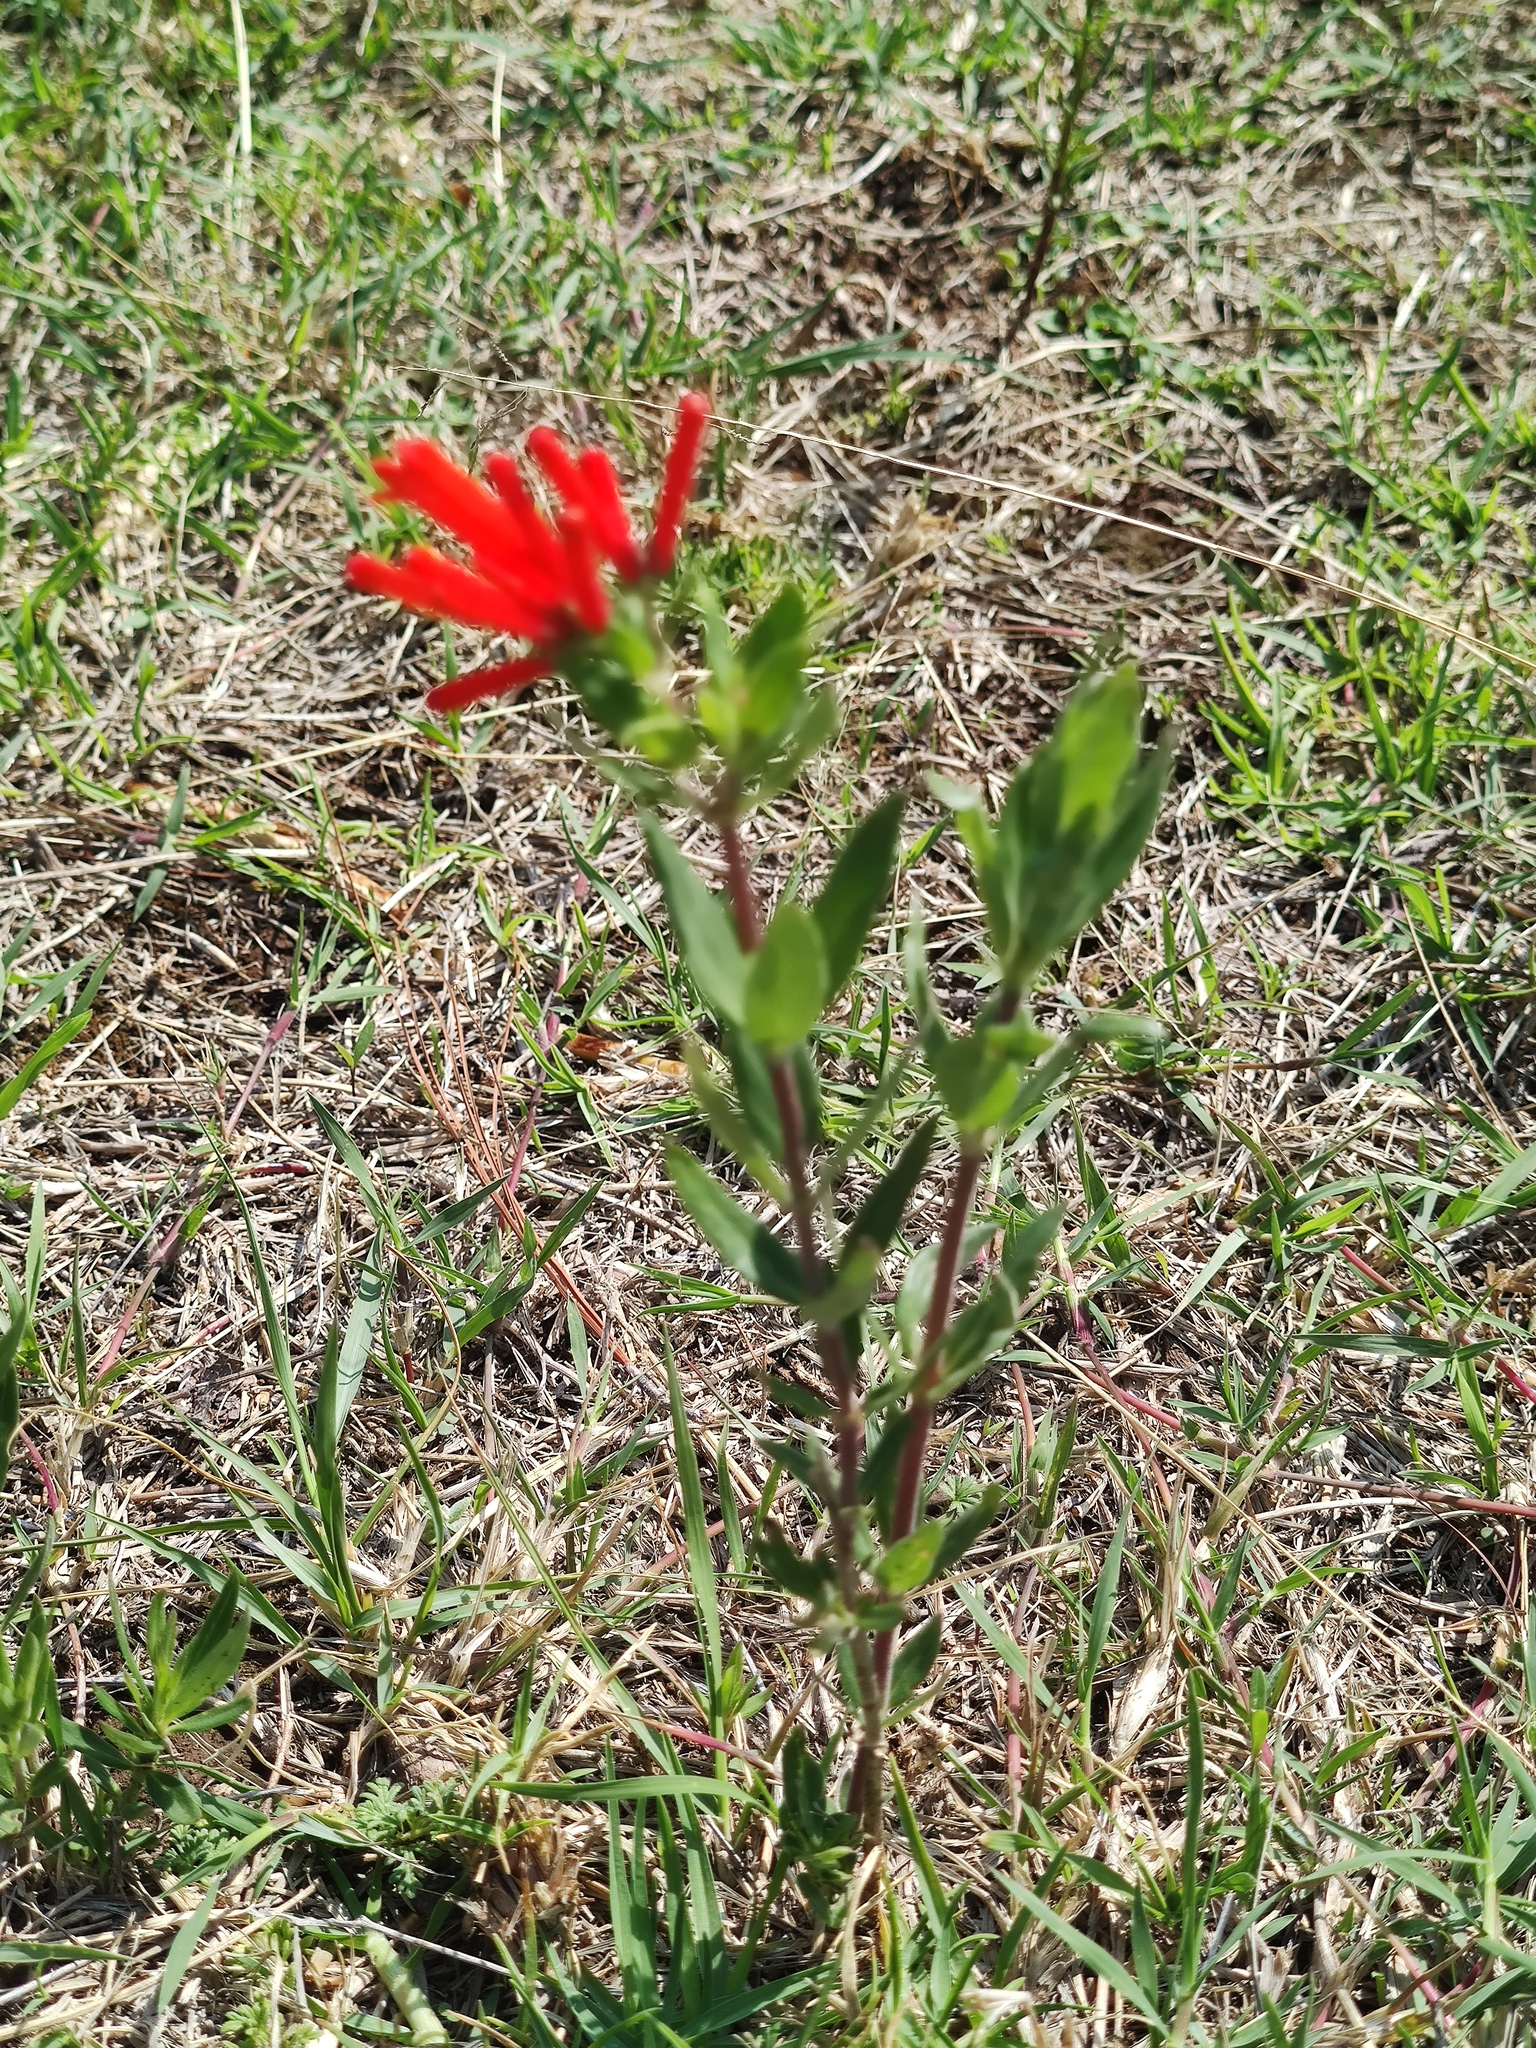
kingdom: Plantae
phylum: Tracheophyta
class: Magnoliopsida
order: Gentianales
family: Rubiaceae
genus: Bouvardia
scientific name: Bouvardia ternifolia
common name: Scarlet bouvardia
